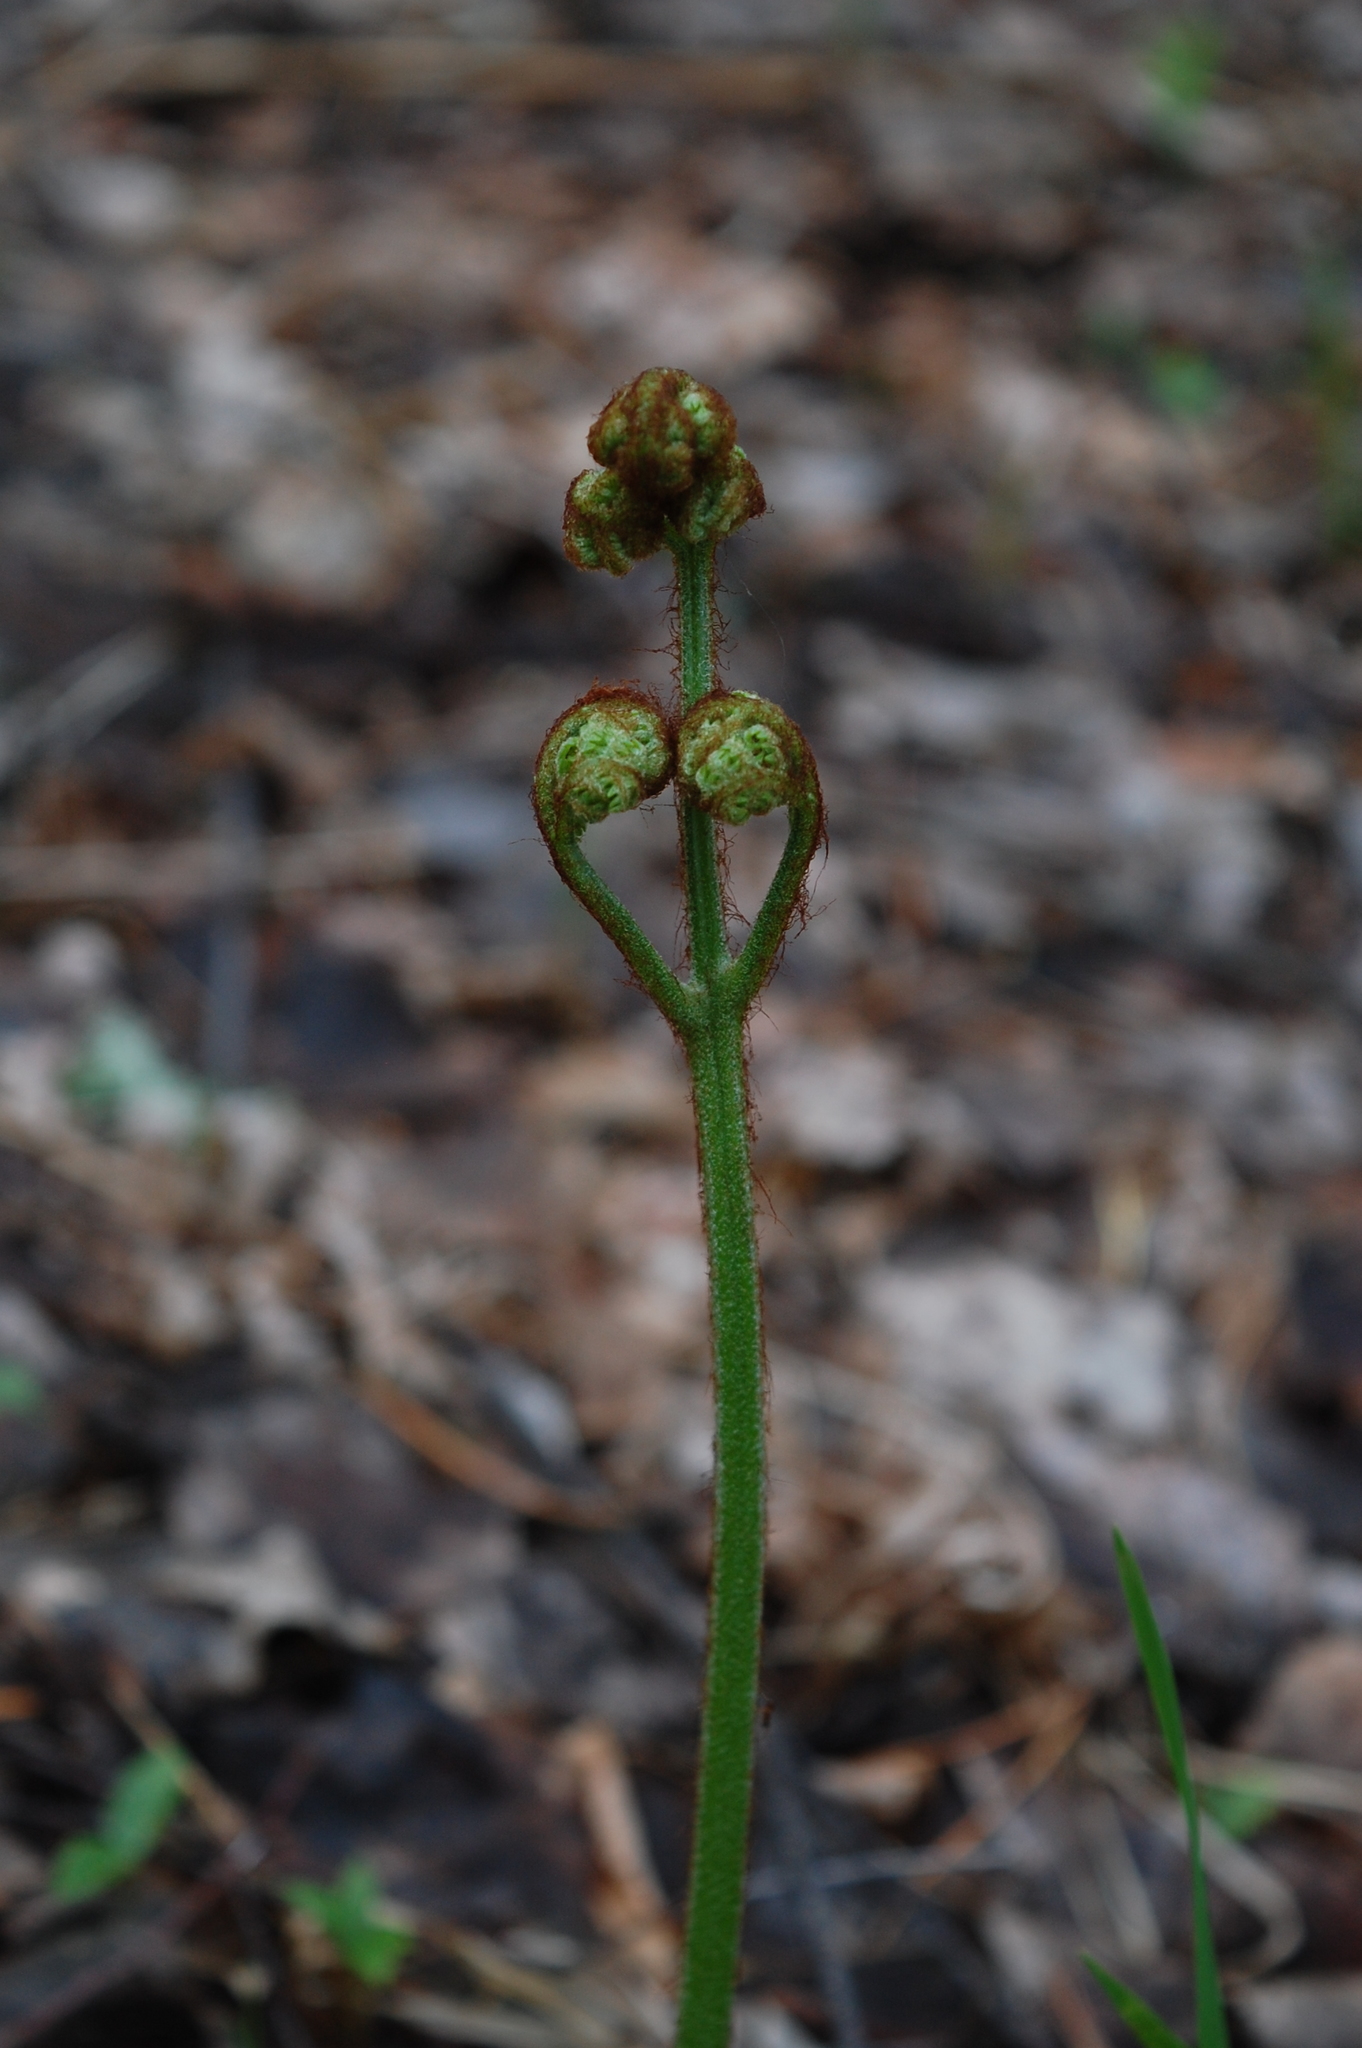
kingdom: Plantae
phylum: Tracheophyta
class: Polypodiopsida
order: Polypodiales
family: Dennstaedtiaceae
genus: Pteridium
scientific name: Pteridium aquilinum
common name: Bracken
